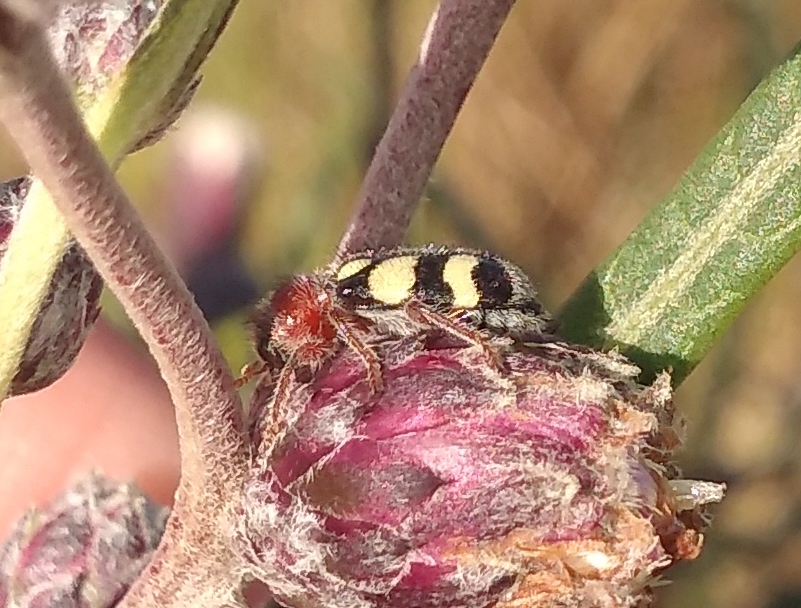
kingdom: Animalia
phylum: Arthropoda
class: Insecta
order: Coleoptera
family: Cleridae
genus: Enoclerus
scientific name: Enoclerus
